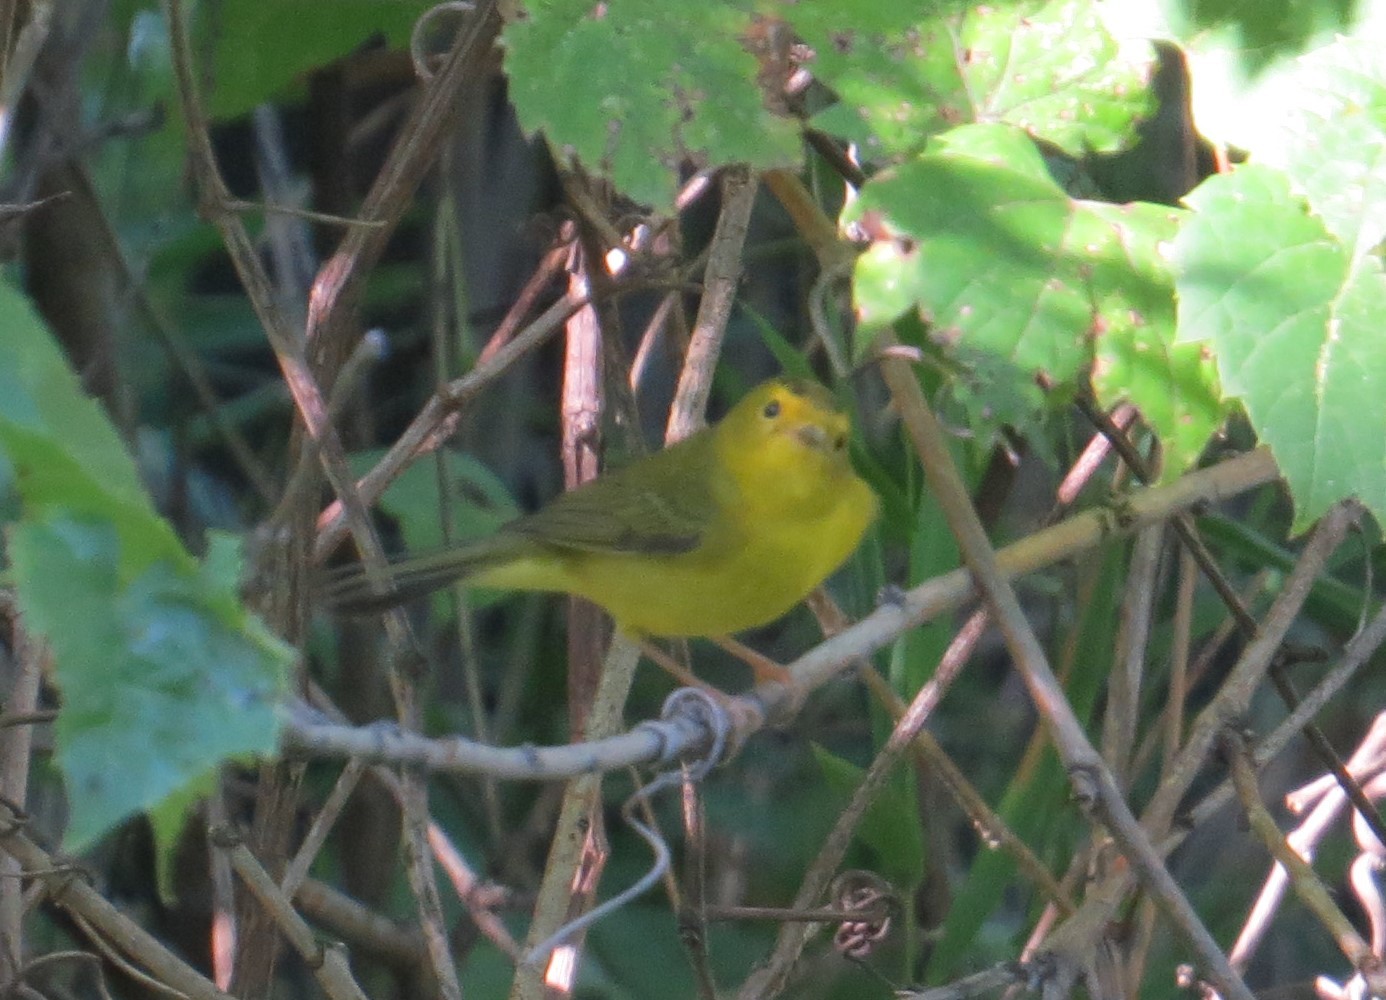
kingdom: Animalia
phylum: Chordata
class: Aves
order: Passeriformes
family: Parulidae
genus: Cardellina
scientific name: Cardellina pusilla
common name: Wilson's warbler
